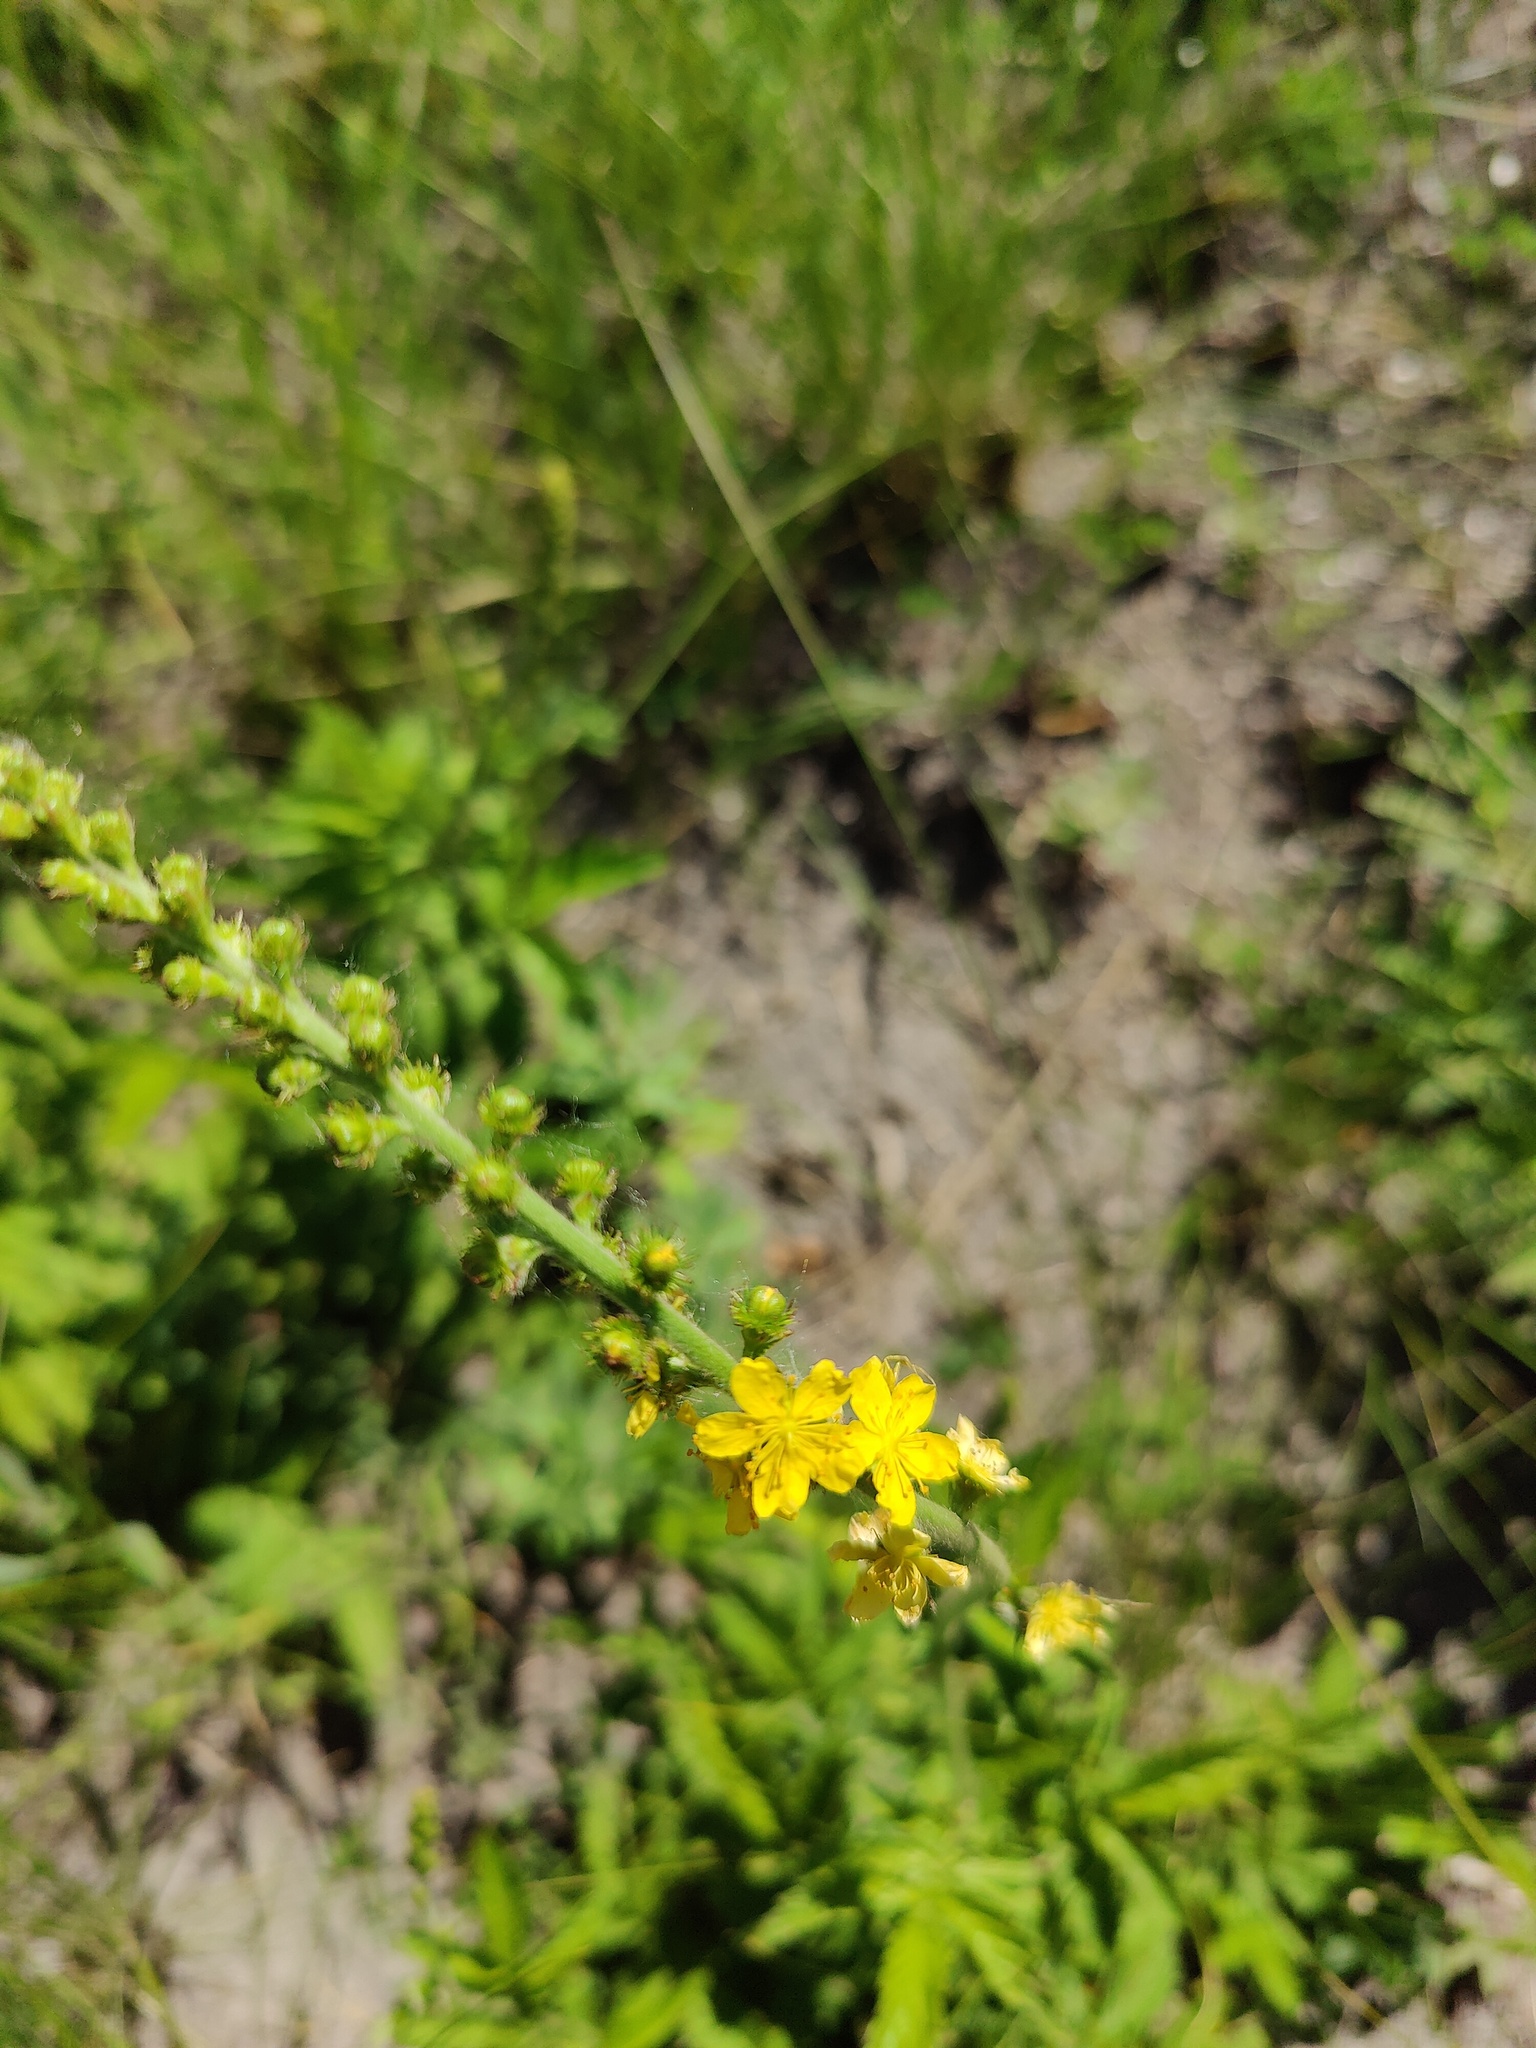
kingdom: Plantae
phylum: Tracheophyta
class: Magnoliopsida
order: Rosales
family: Rosaceae
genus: Agrimonia
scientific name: Agrimonia eupatoria
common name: Agrimony
